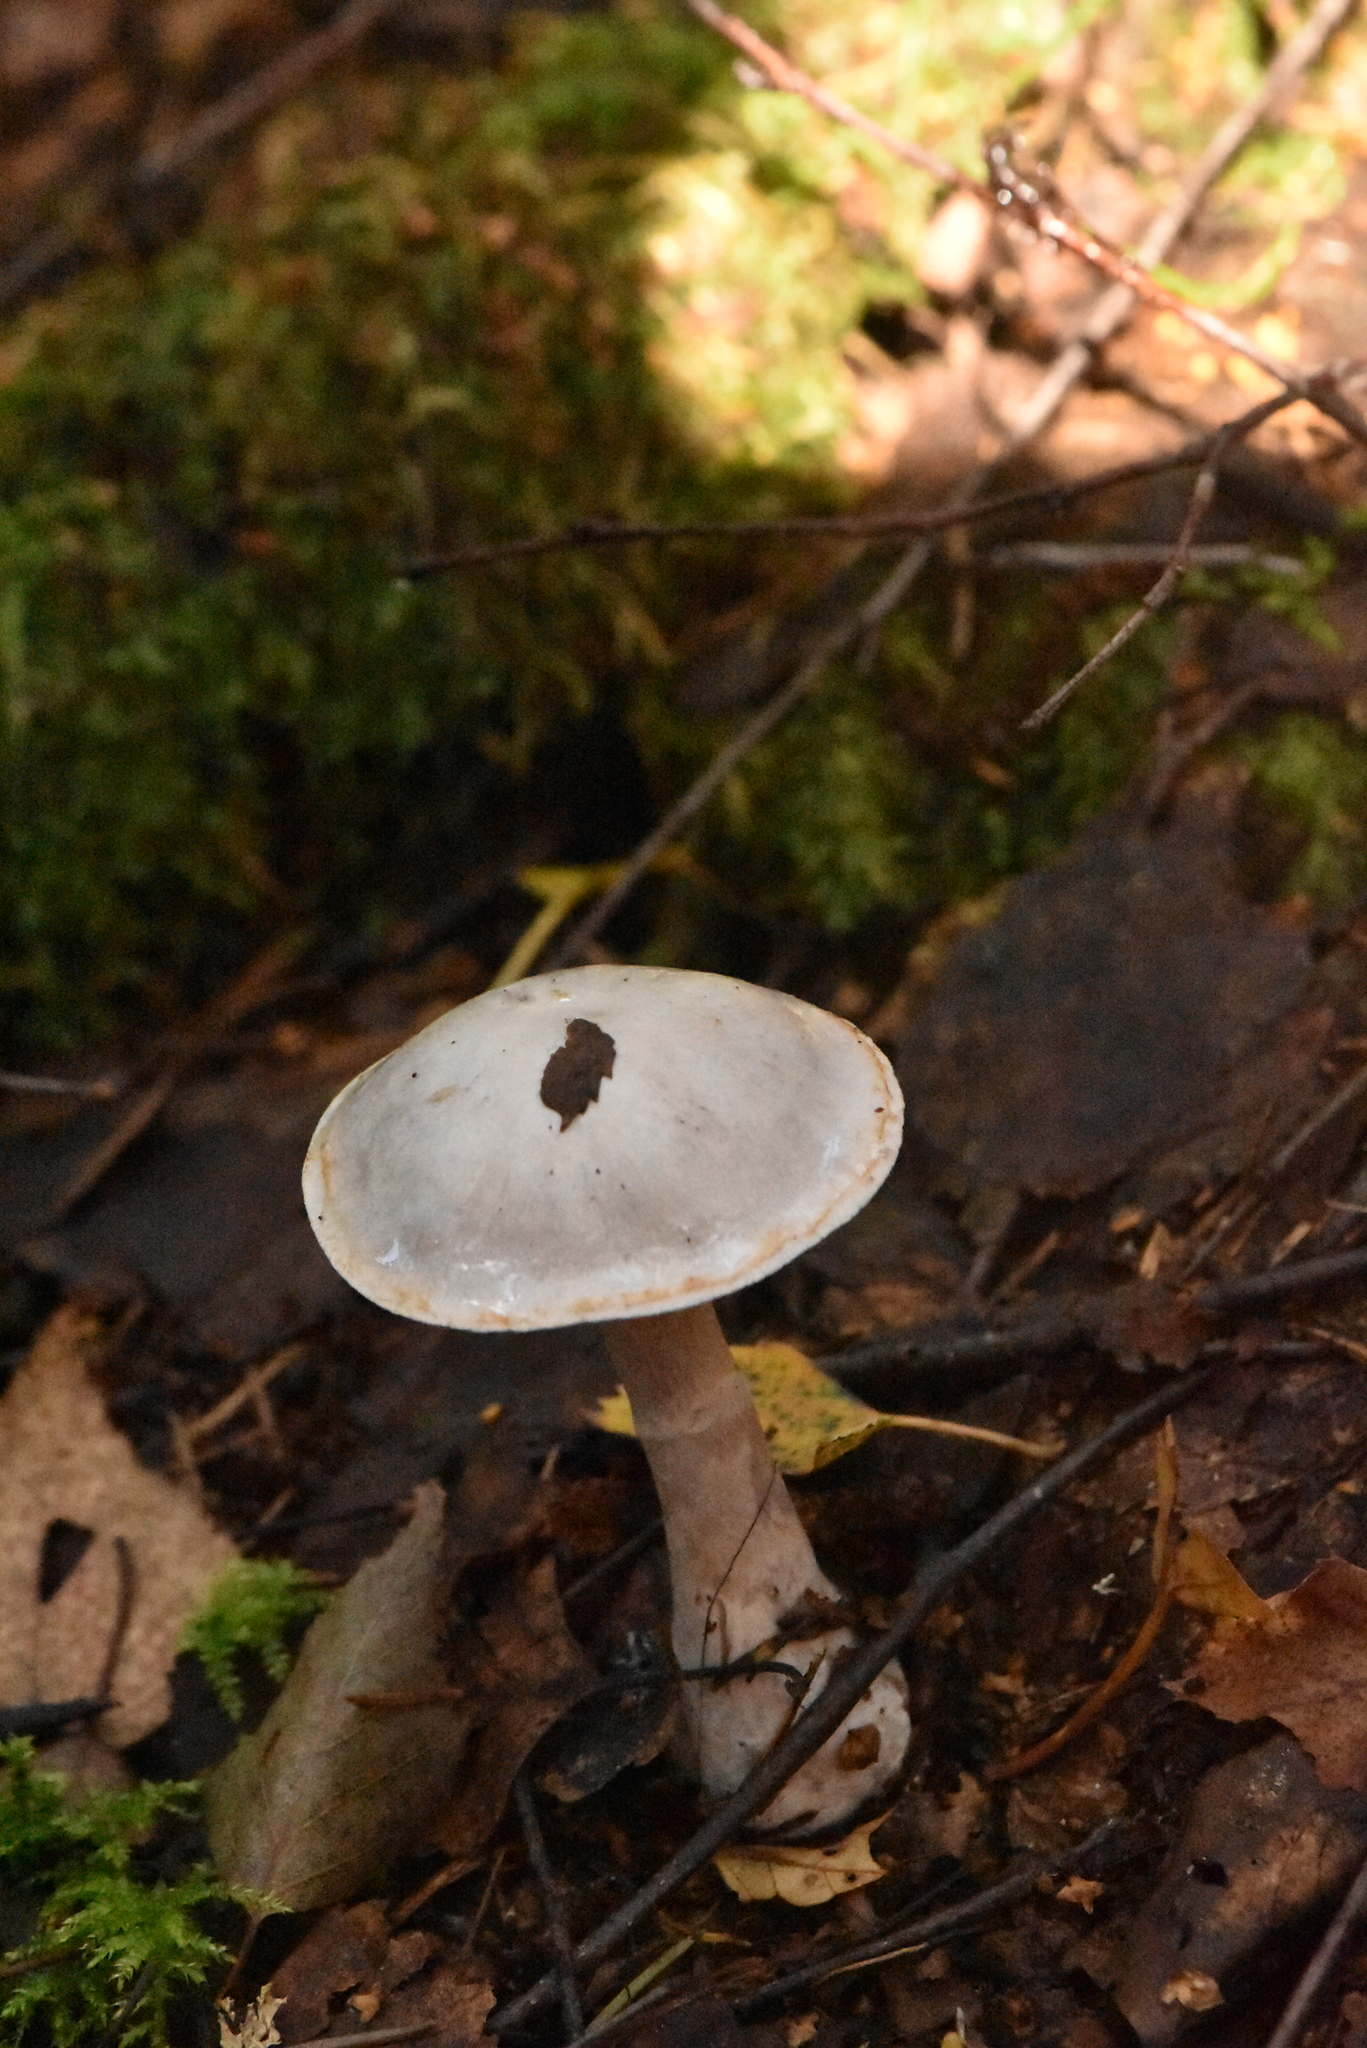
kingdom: Fungi
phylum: Basidiomycota
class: Agaricomycetes
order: Agaricales
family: Cortinariaceae
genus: Cortinarius
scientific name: Cortinarius alboviolaceus
